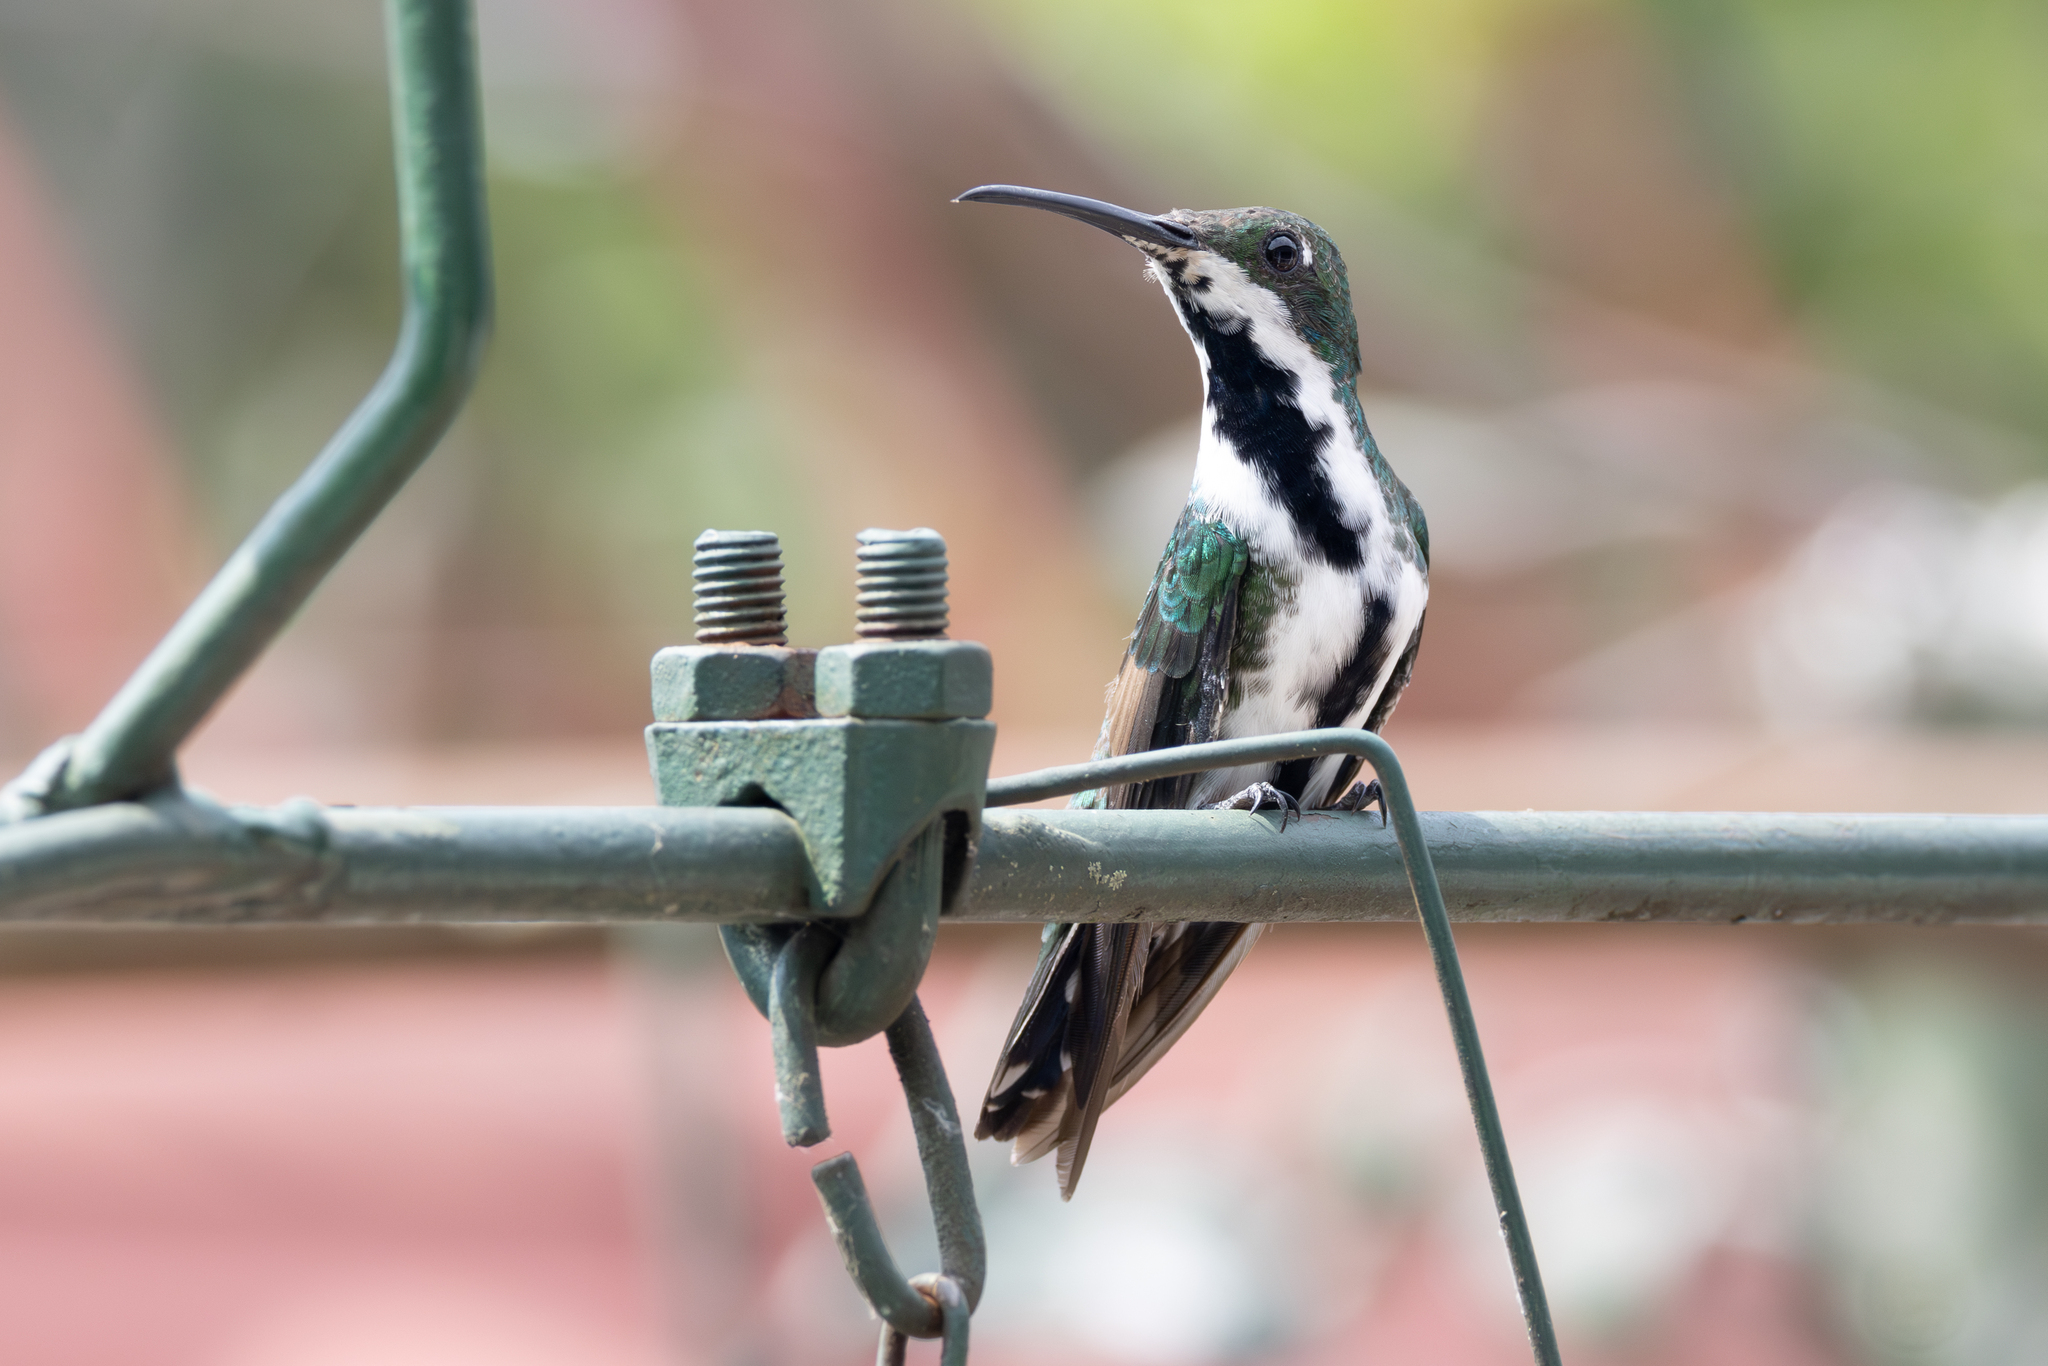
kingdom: Animalia
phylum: Chordata
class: Aves
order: Apodiformes
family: Trochilidae
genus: Anthracothorax
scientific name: Anthracothorax nigricollis
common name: Black-throated mango
